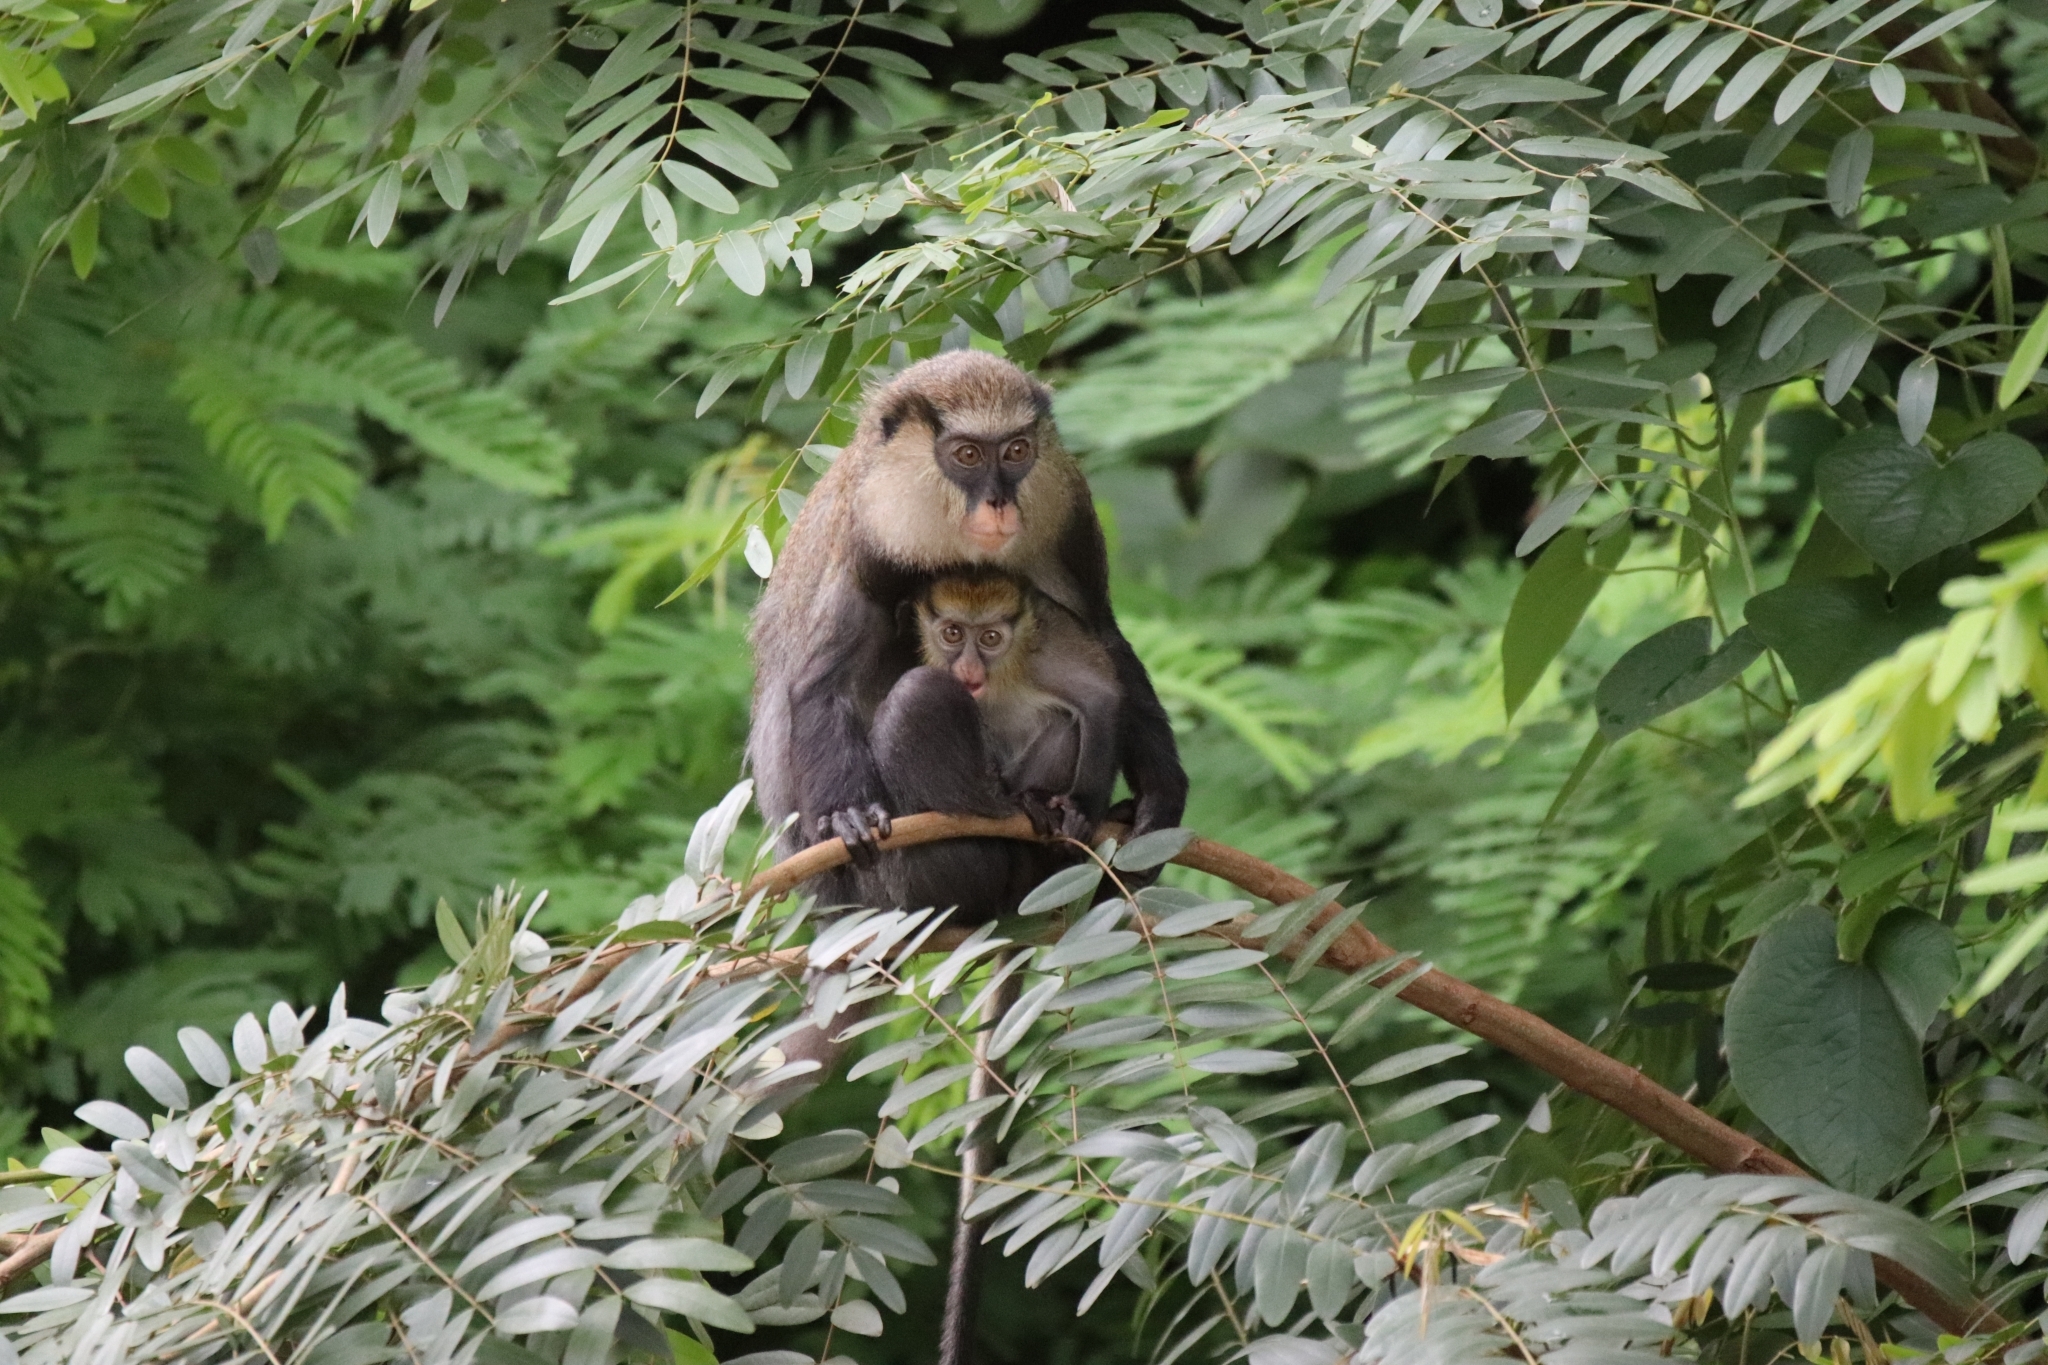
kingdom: Animalia
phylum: Chordata
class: Mammalia
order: Primates
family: Cercopithecidae
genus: Cercopithecus
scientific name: Cercopithecus campbelli
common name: Campbell's monkey
